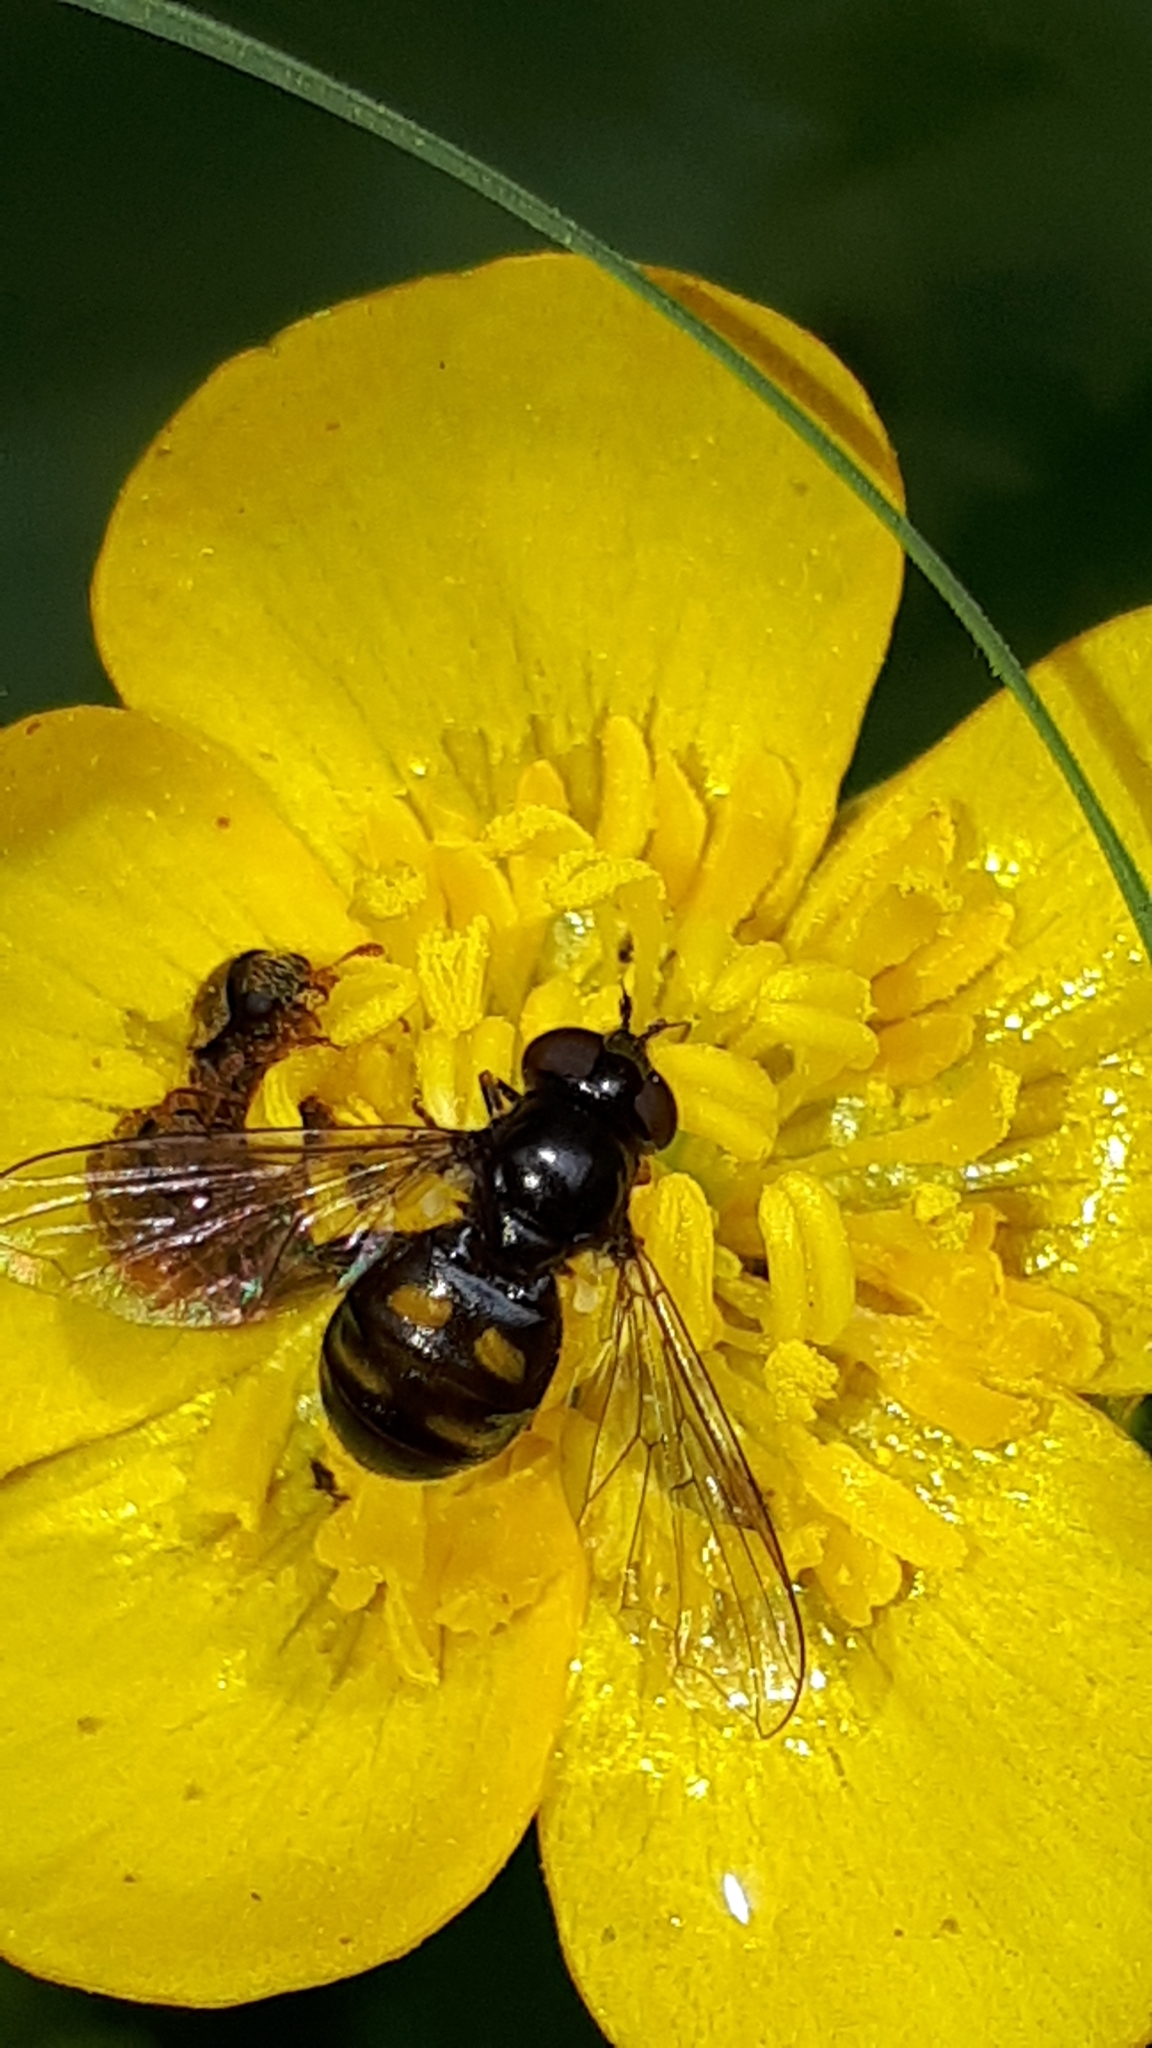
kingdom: Animalia
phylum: Arthropoda
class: Insecta
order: Diptera
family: Syrphidae
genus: Pipiza
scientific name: Pipiza quadrimaculata
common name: Four-spotted pipiza
